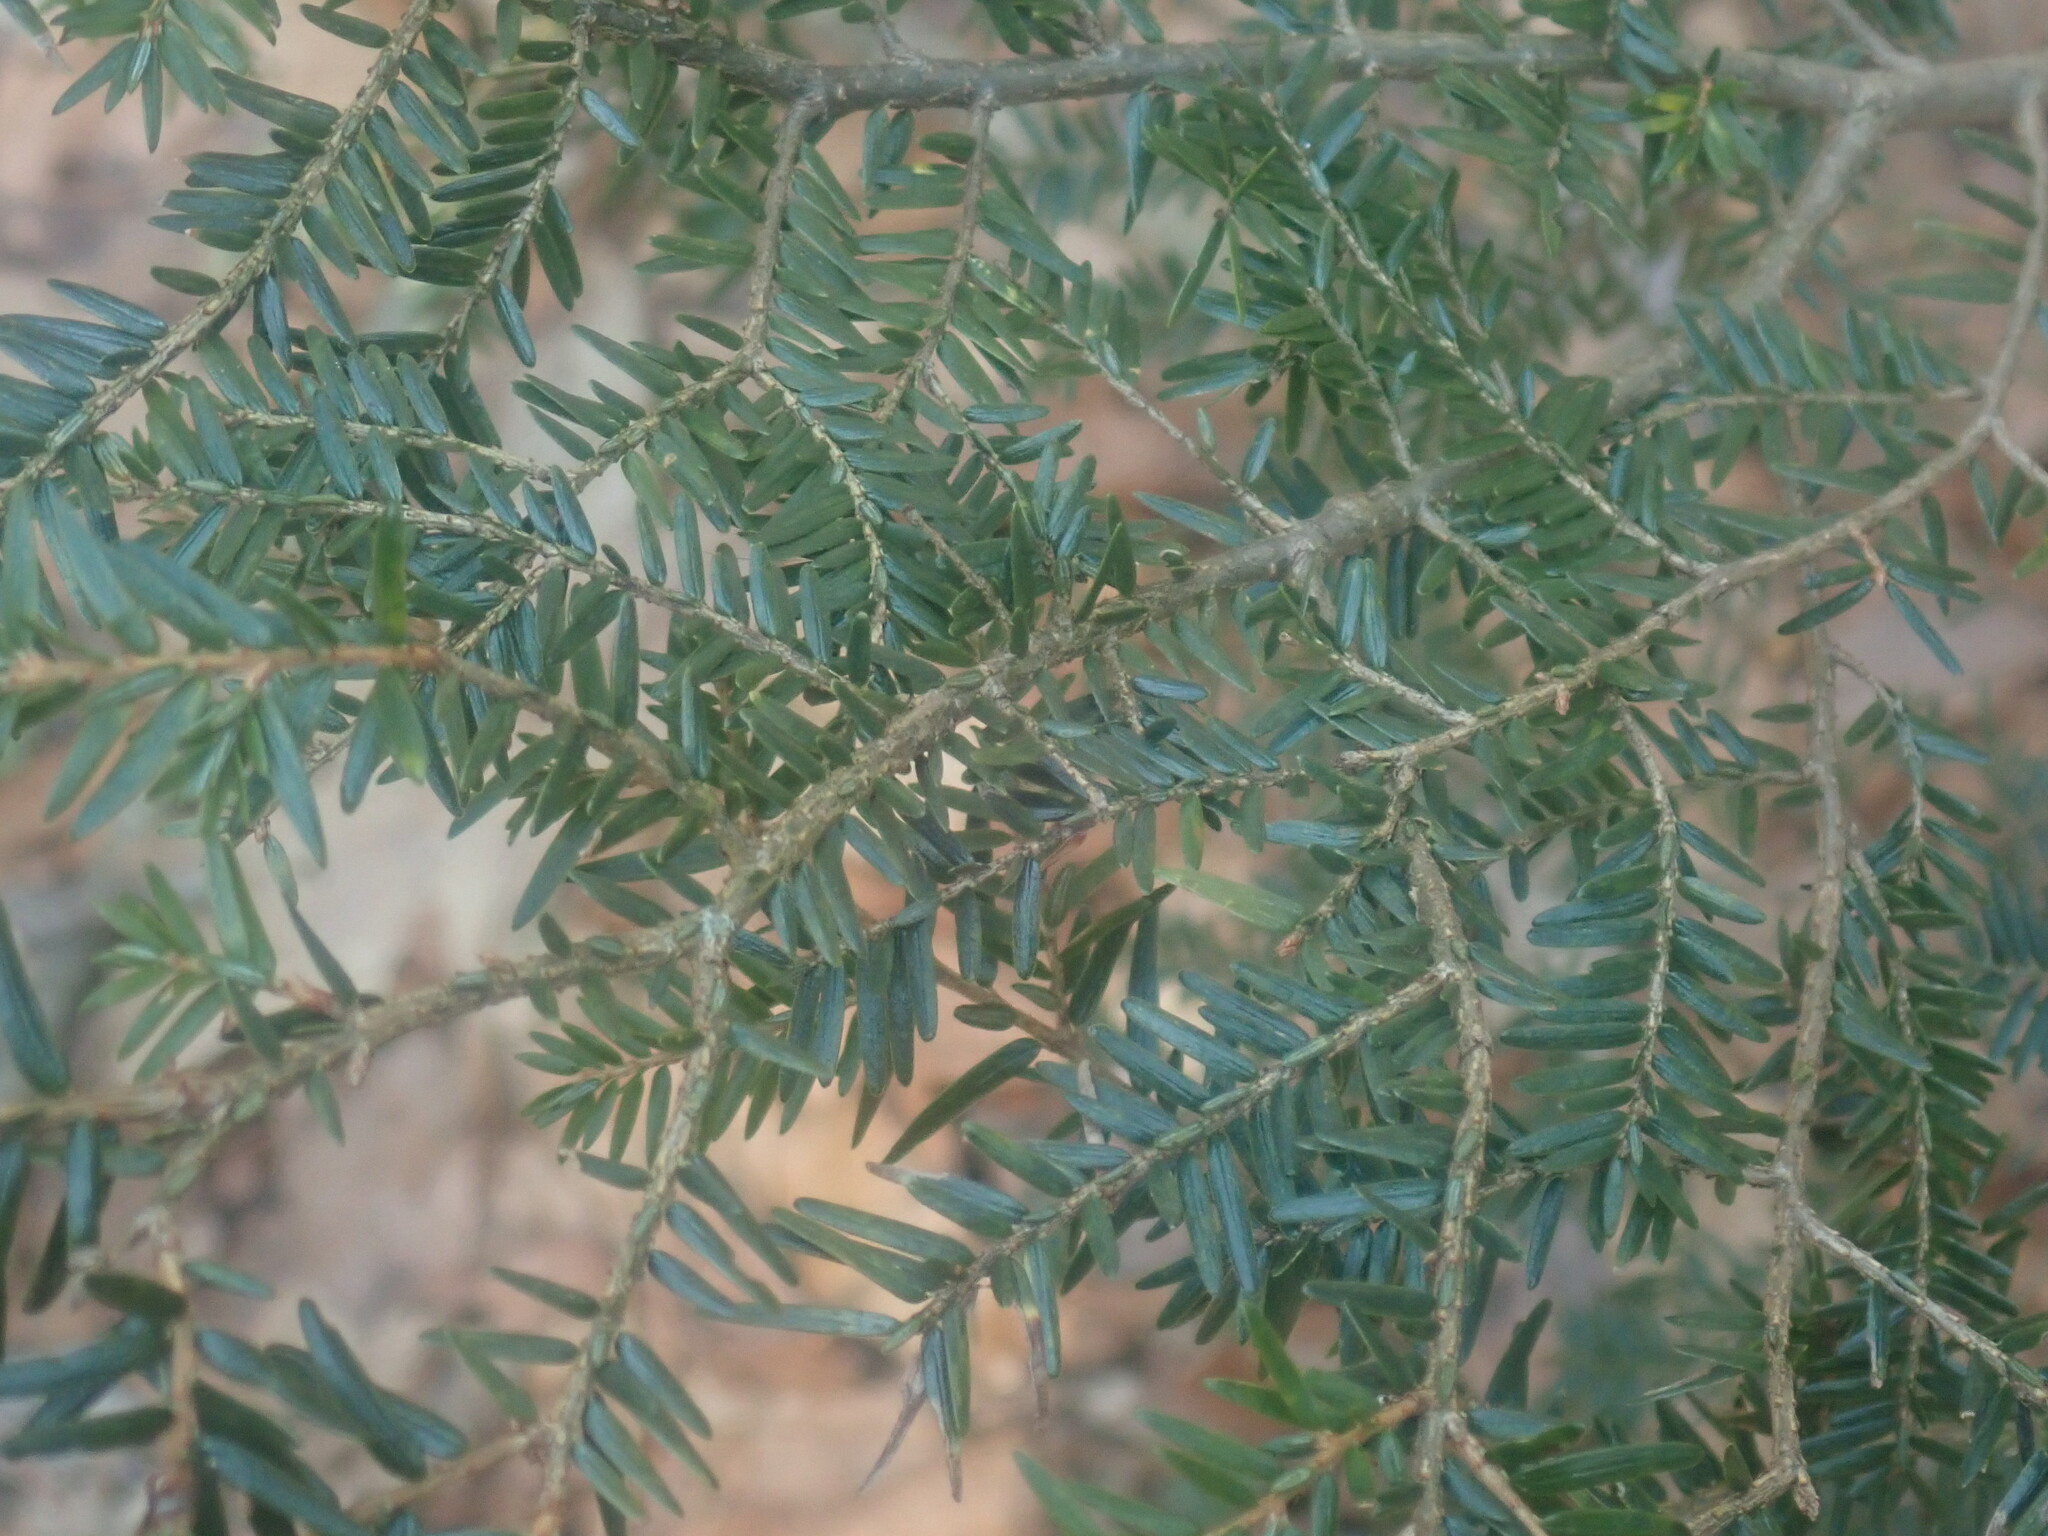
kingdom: Plantae
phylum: Tracheophyta
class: Pinopsida
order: Pinales
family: Pinaceae
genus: Tsuga
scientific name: Tsuga canadensis
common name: Eastern hemlock
